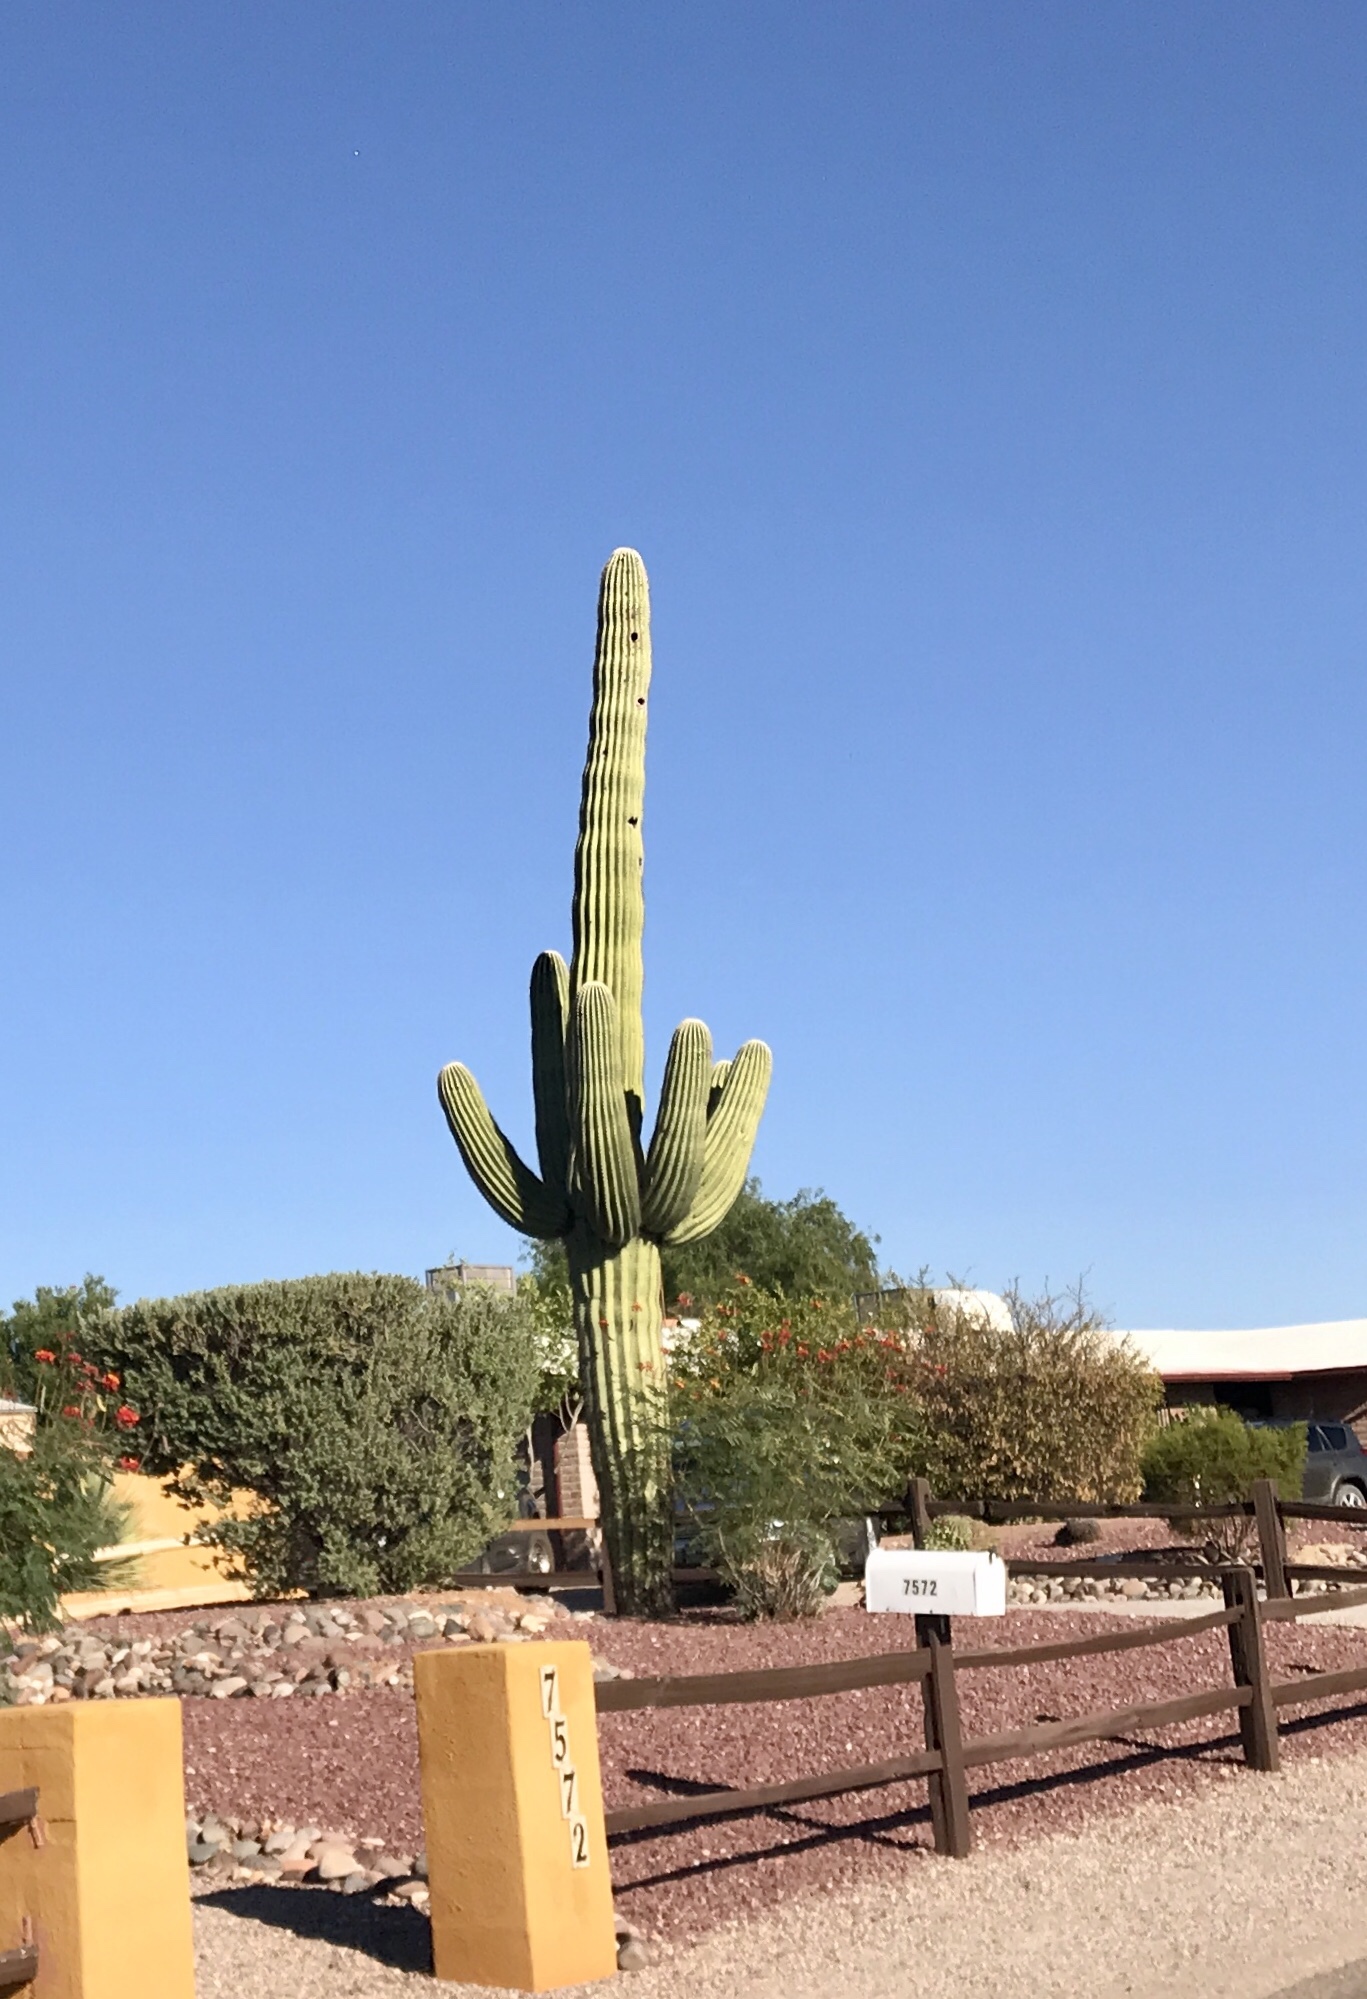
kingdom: Plantae
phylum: Tracheophyta
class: Magnoliopsida
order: Caryophyllales
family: Cactaceae
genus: Carnegiea
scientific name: Carnegiea gigantea
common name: Saguaro
